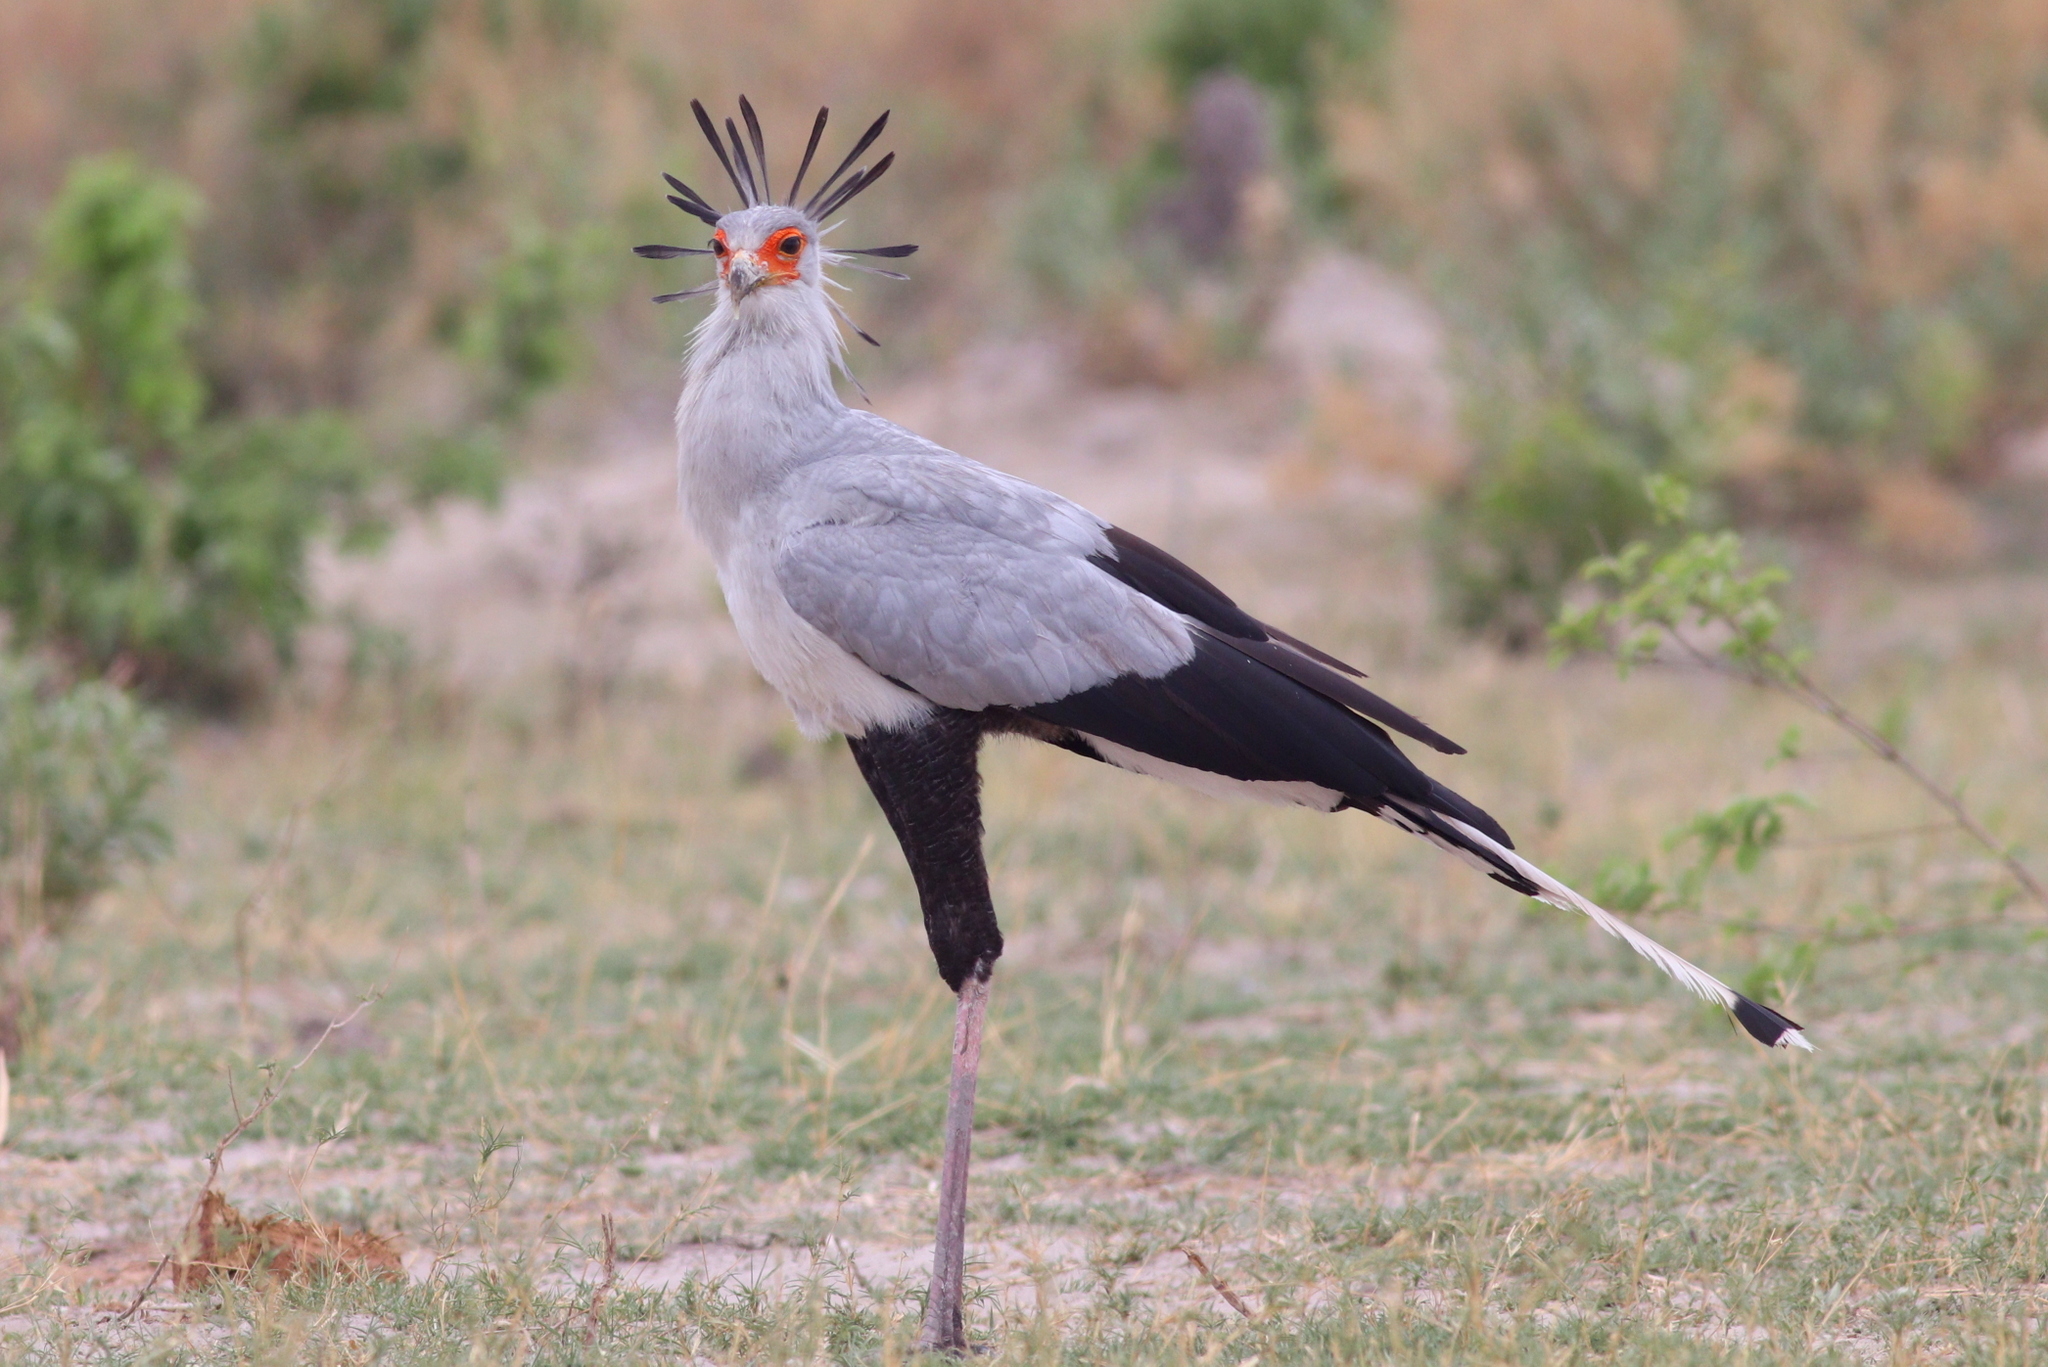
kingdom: Animalia
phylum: Chordata
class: Aves
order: Accipitriformes
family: Sagittariidae
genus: Sagittarius
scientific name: Sagittarius serpentarius
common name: Secretarybird
